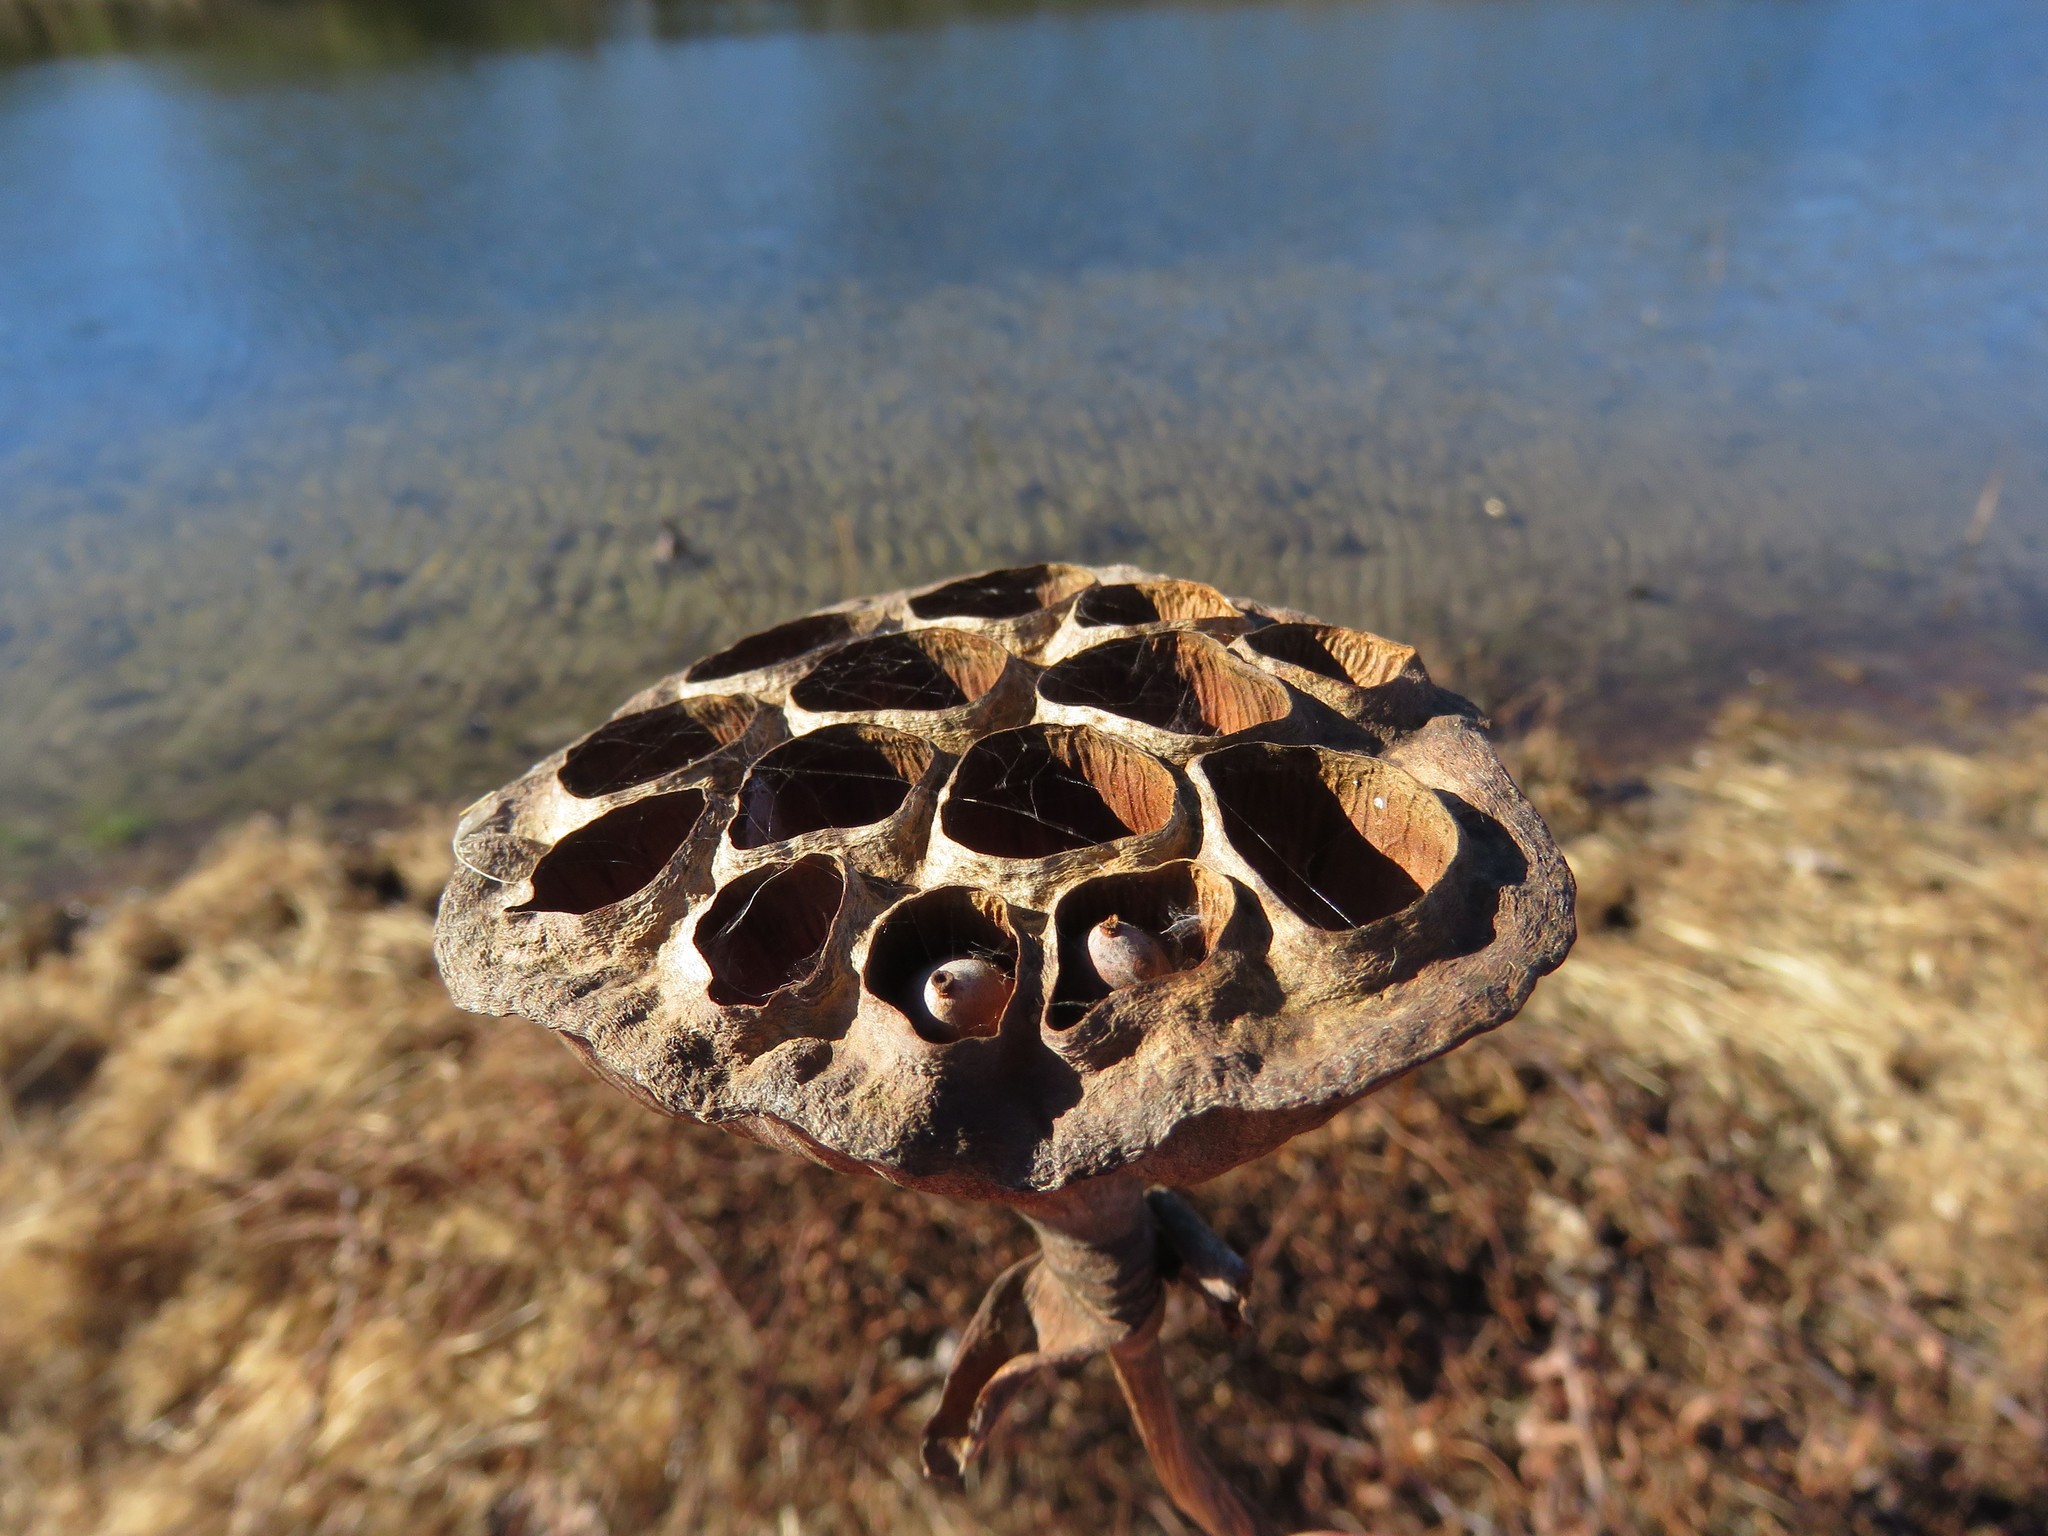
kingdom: Plantae
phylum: Tracheophyta
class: Magnoliopsida
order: Proteales
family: Nelumbonaceae
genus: Nelumbo
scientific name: Nelumbo lutea
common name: American lotus
